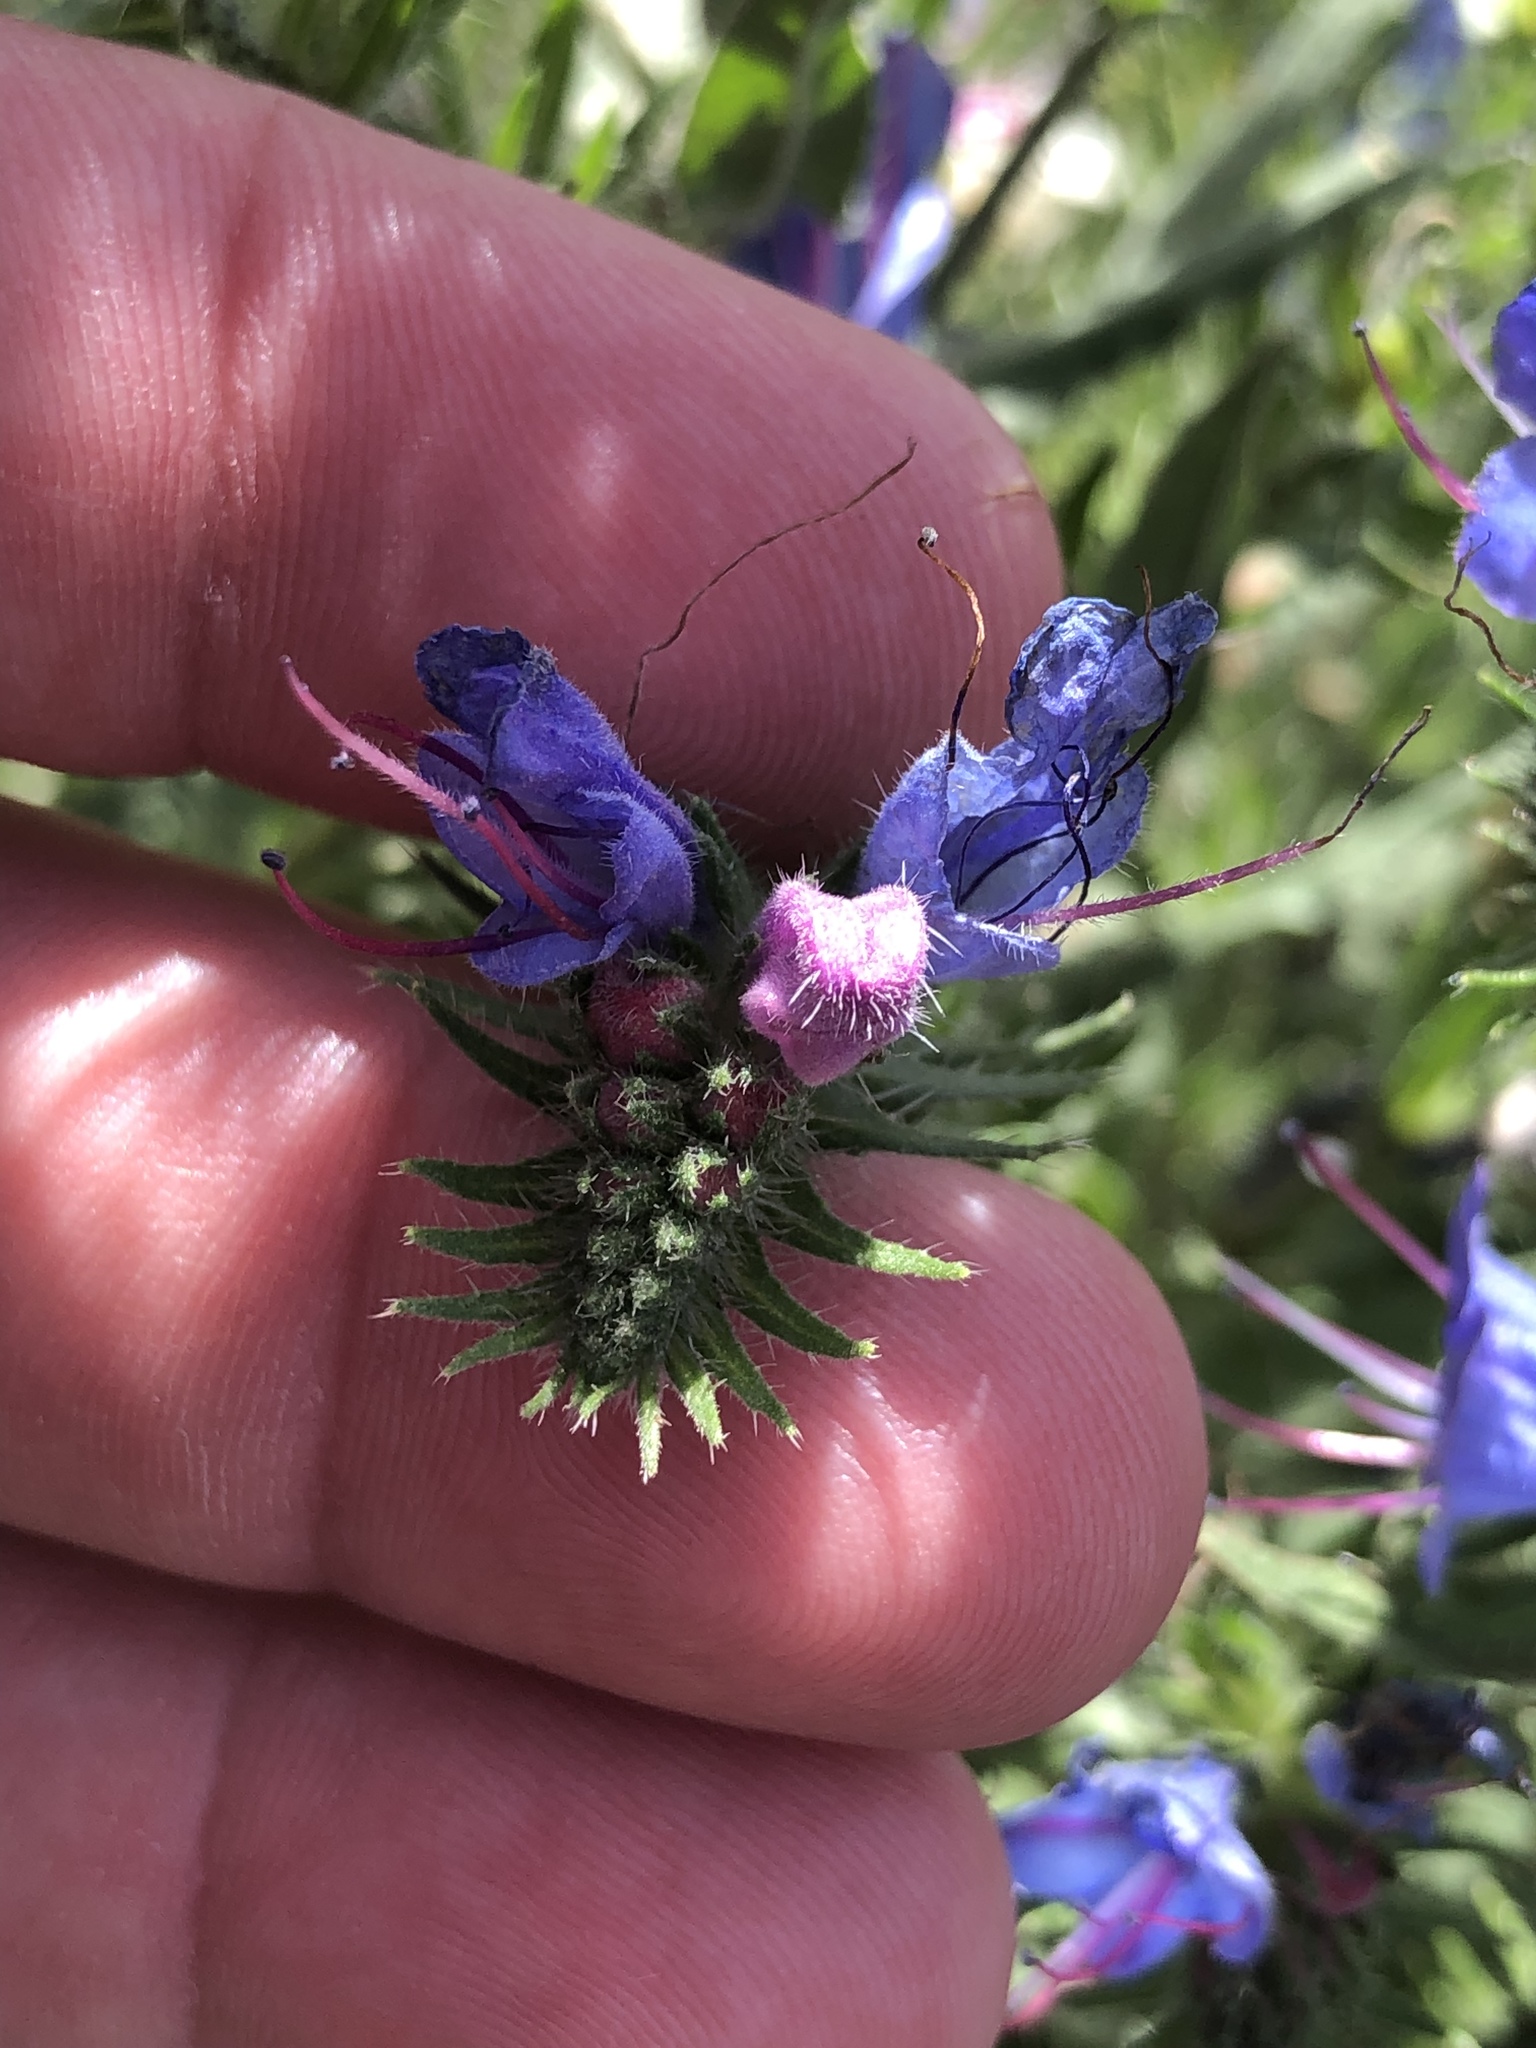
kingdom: Plantae
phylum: Tracheophyta
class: Magnoliopsida
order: Boraginales
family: Boraginaceae
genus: Echium
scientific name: Echium vulgare
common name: Common viper's bugloss
